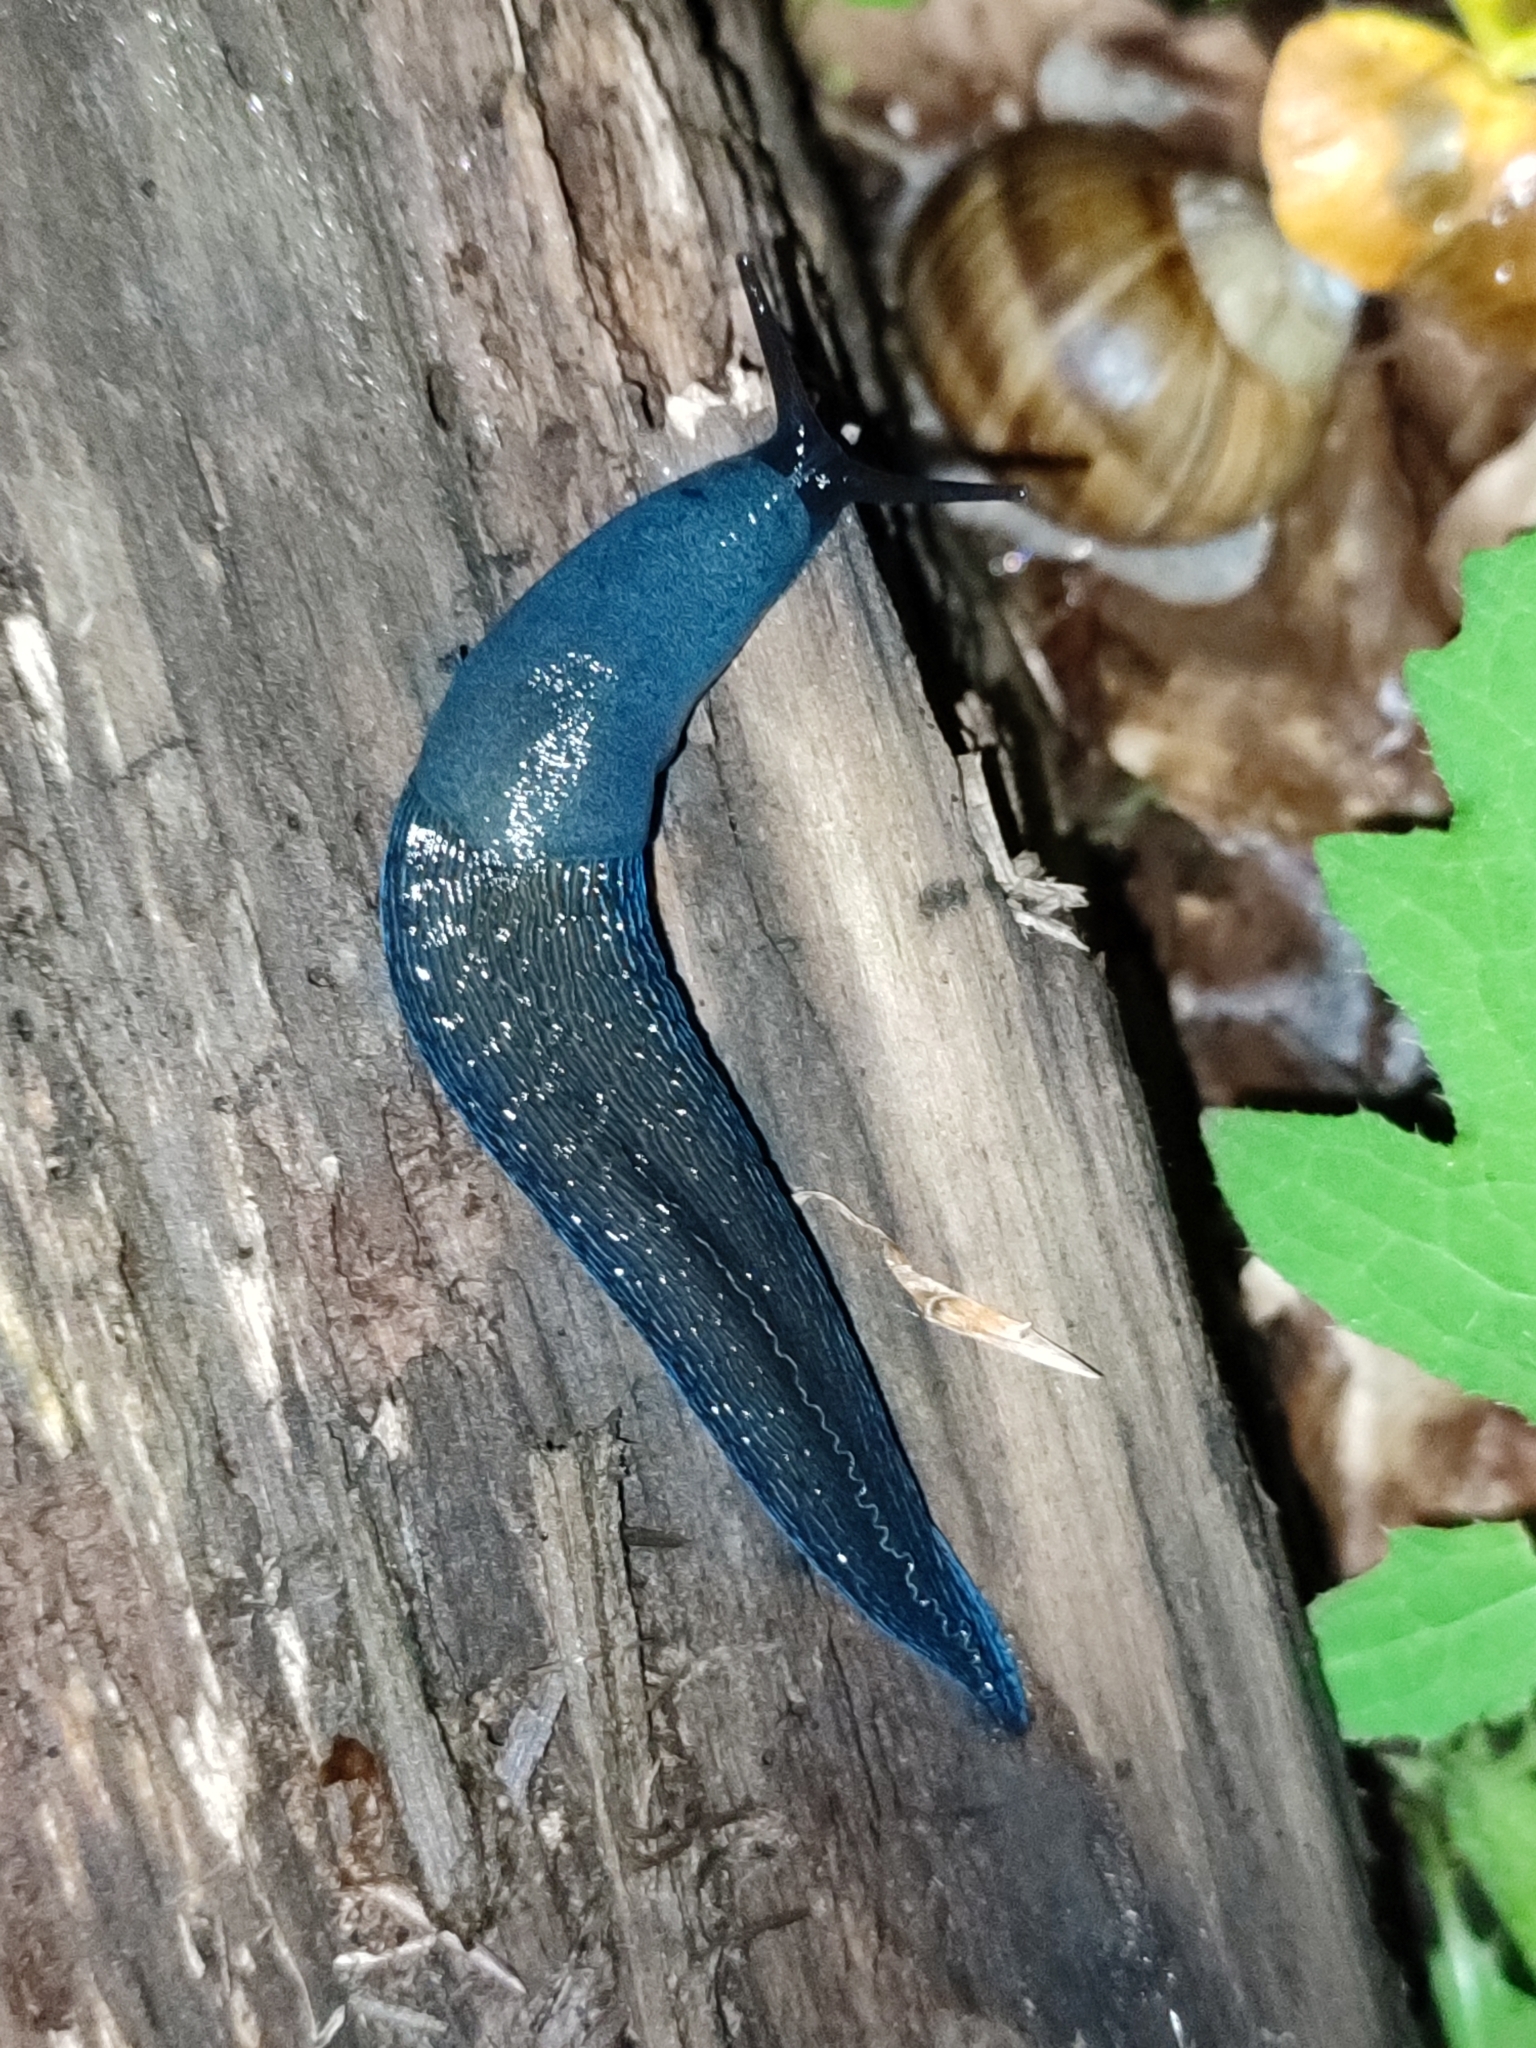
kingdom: Animalia
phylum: Mollusca
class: Gastropoda
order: Stylommatophora
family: Limacidae
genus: Bielzia
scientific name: Bielzia coerulans
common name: Carpathian blue slug
